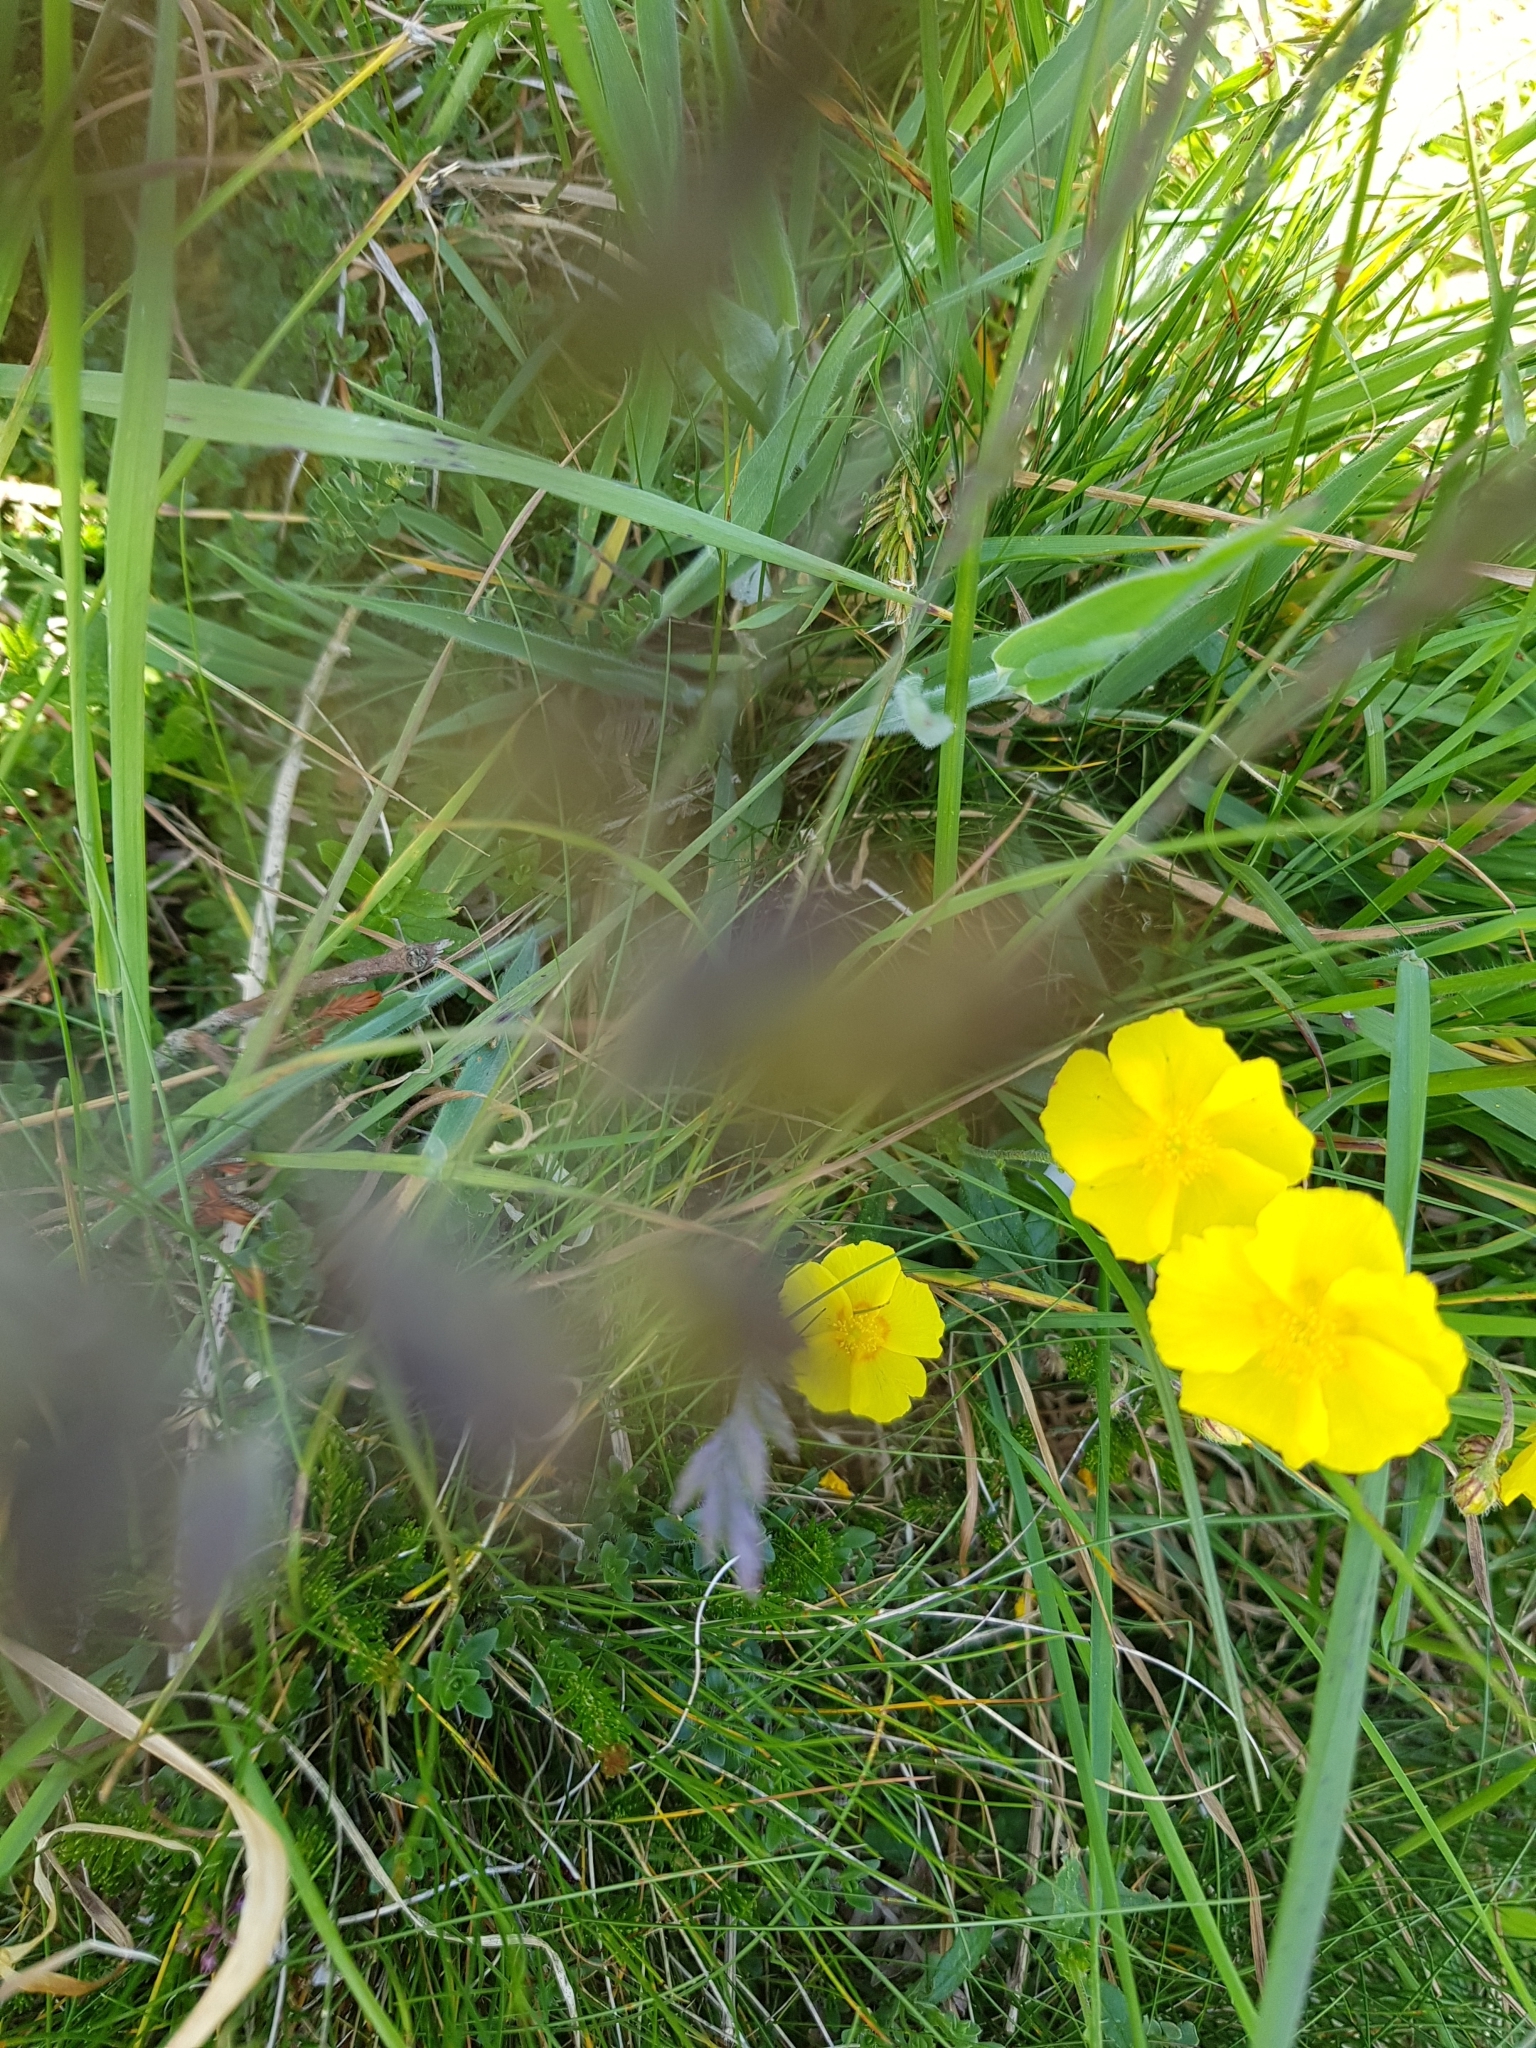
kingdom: Plantae
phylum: Tracheophyta
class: Magnoliopsida
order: Malvales
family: Cistaceae
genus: Helianthemum
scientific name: Helianthemum nummularium
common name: Common rock-rose
